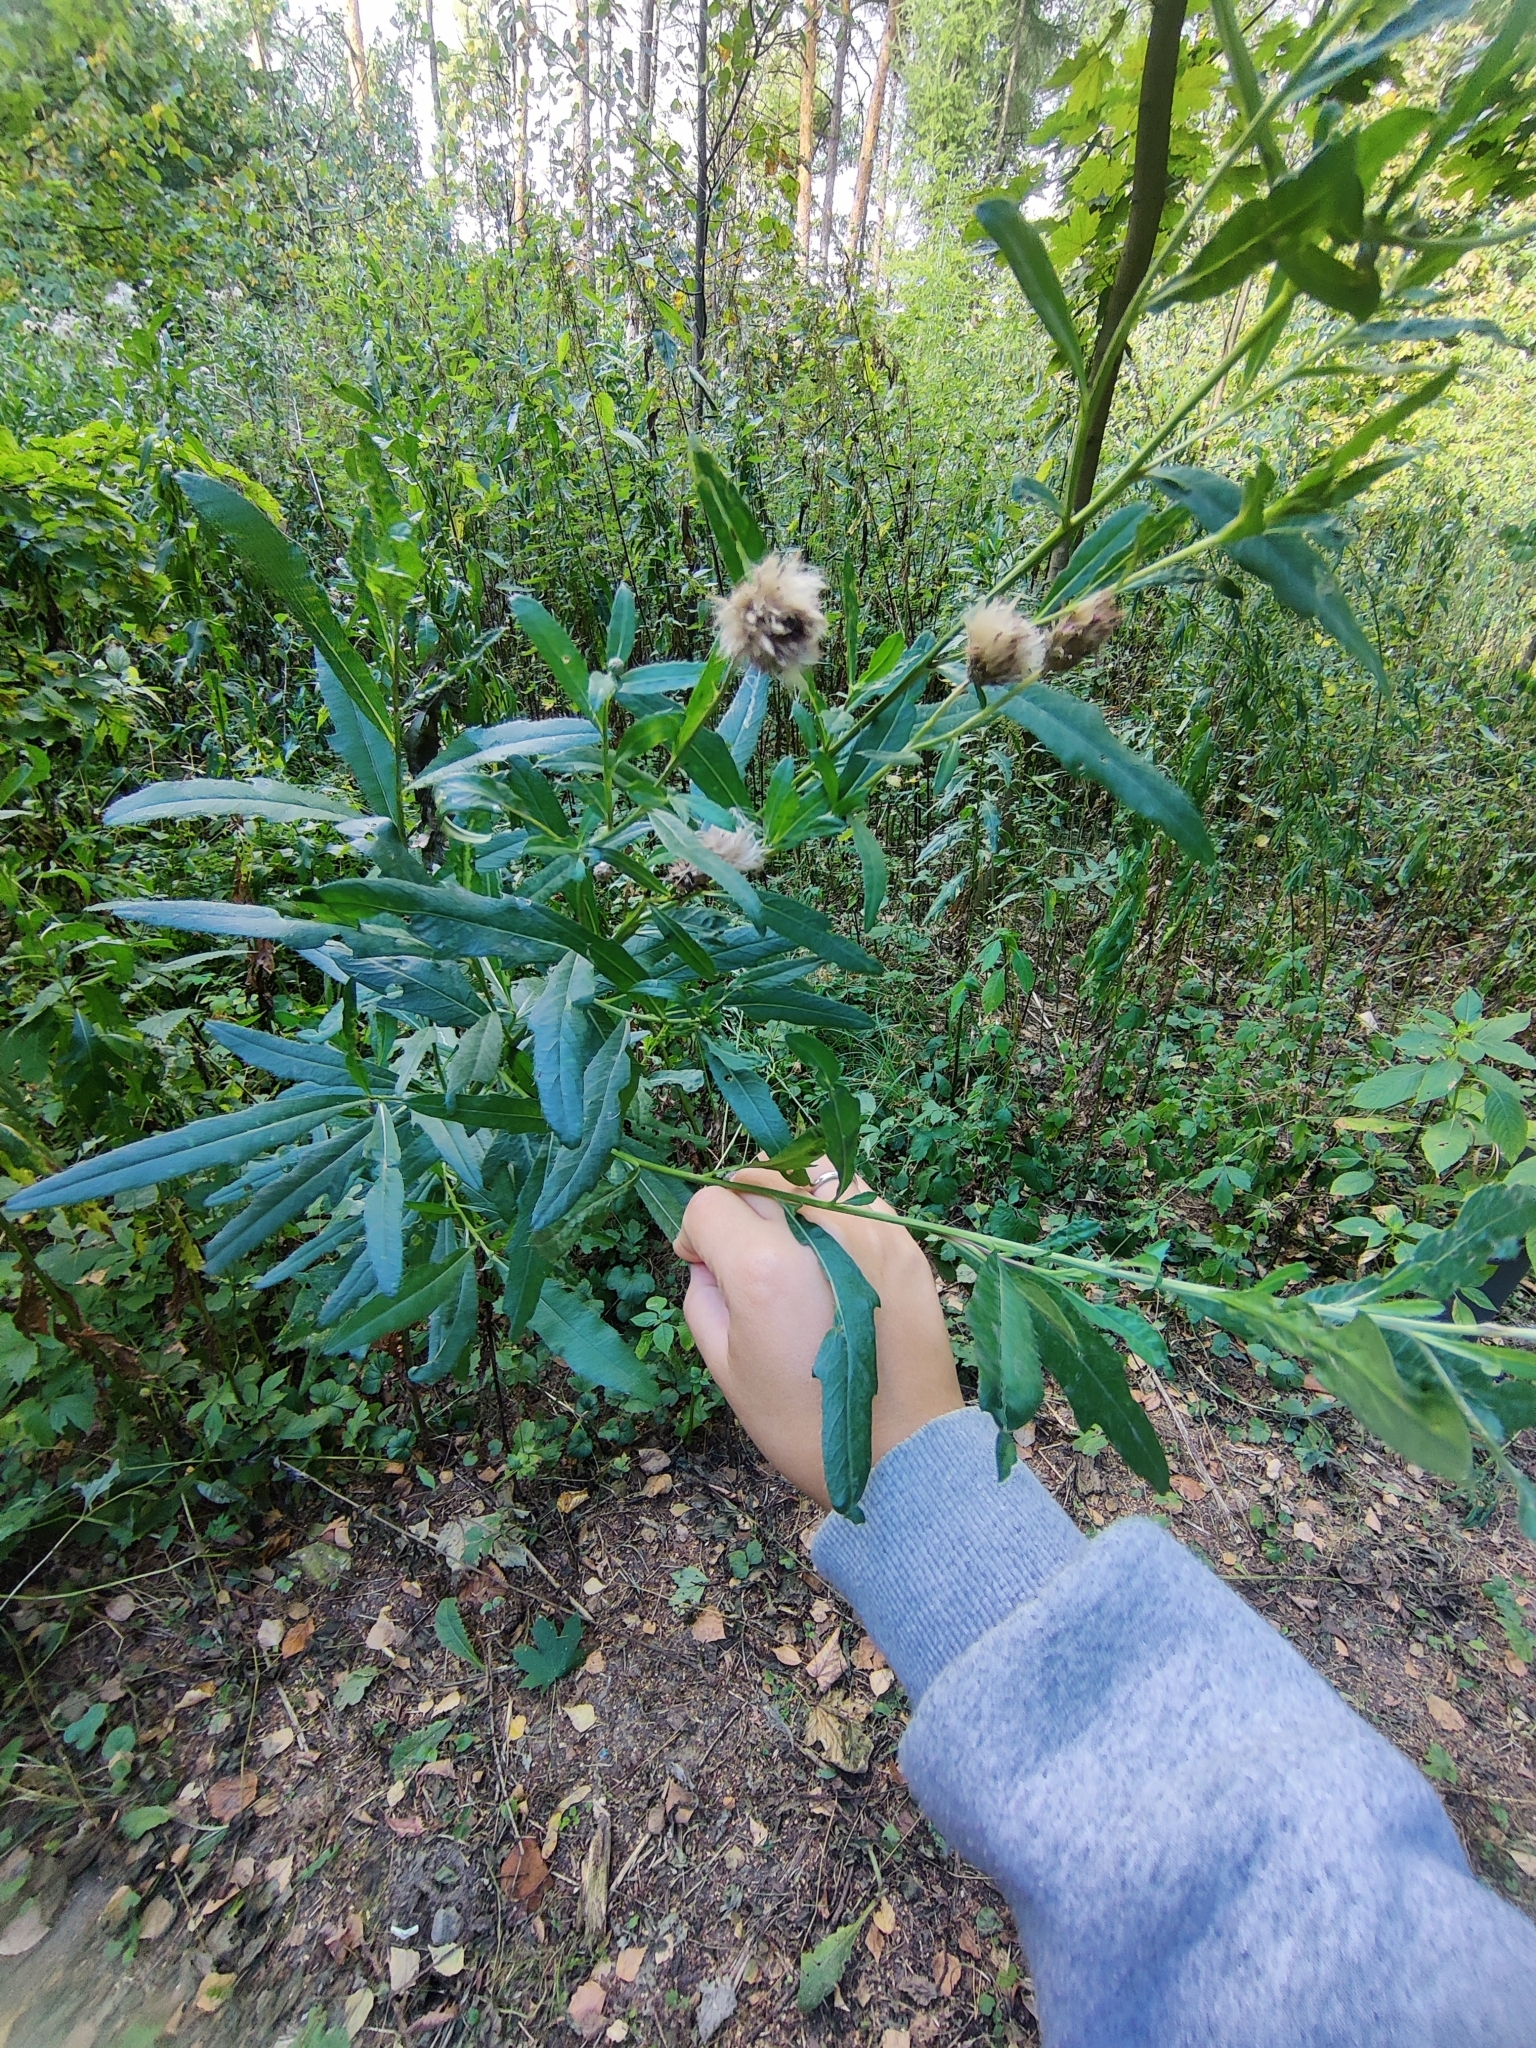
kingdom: Plantae
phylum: Tracheophyta
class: Magnoliopsida
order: Asterales
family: Asteraceae
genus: Cirsium
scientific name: Cirsium arvense
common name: Creeping thistle
